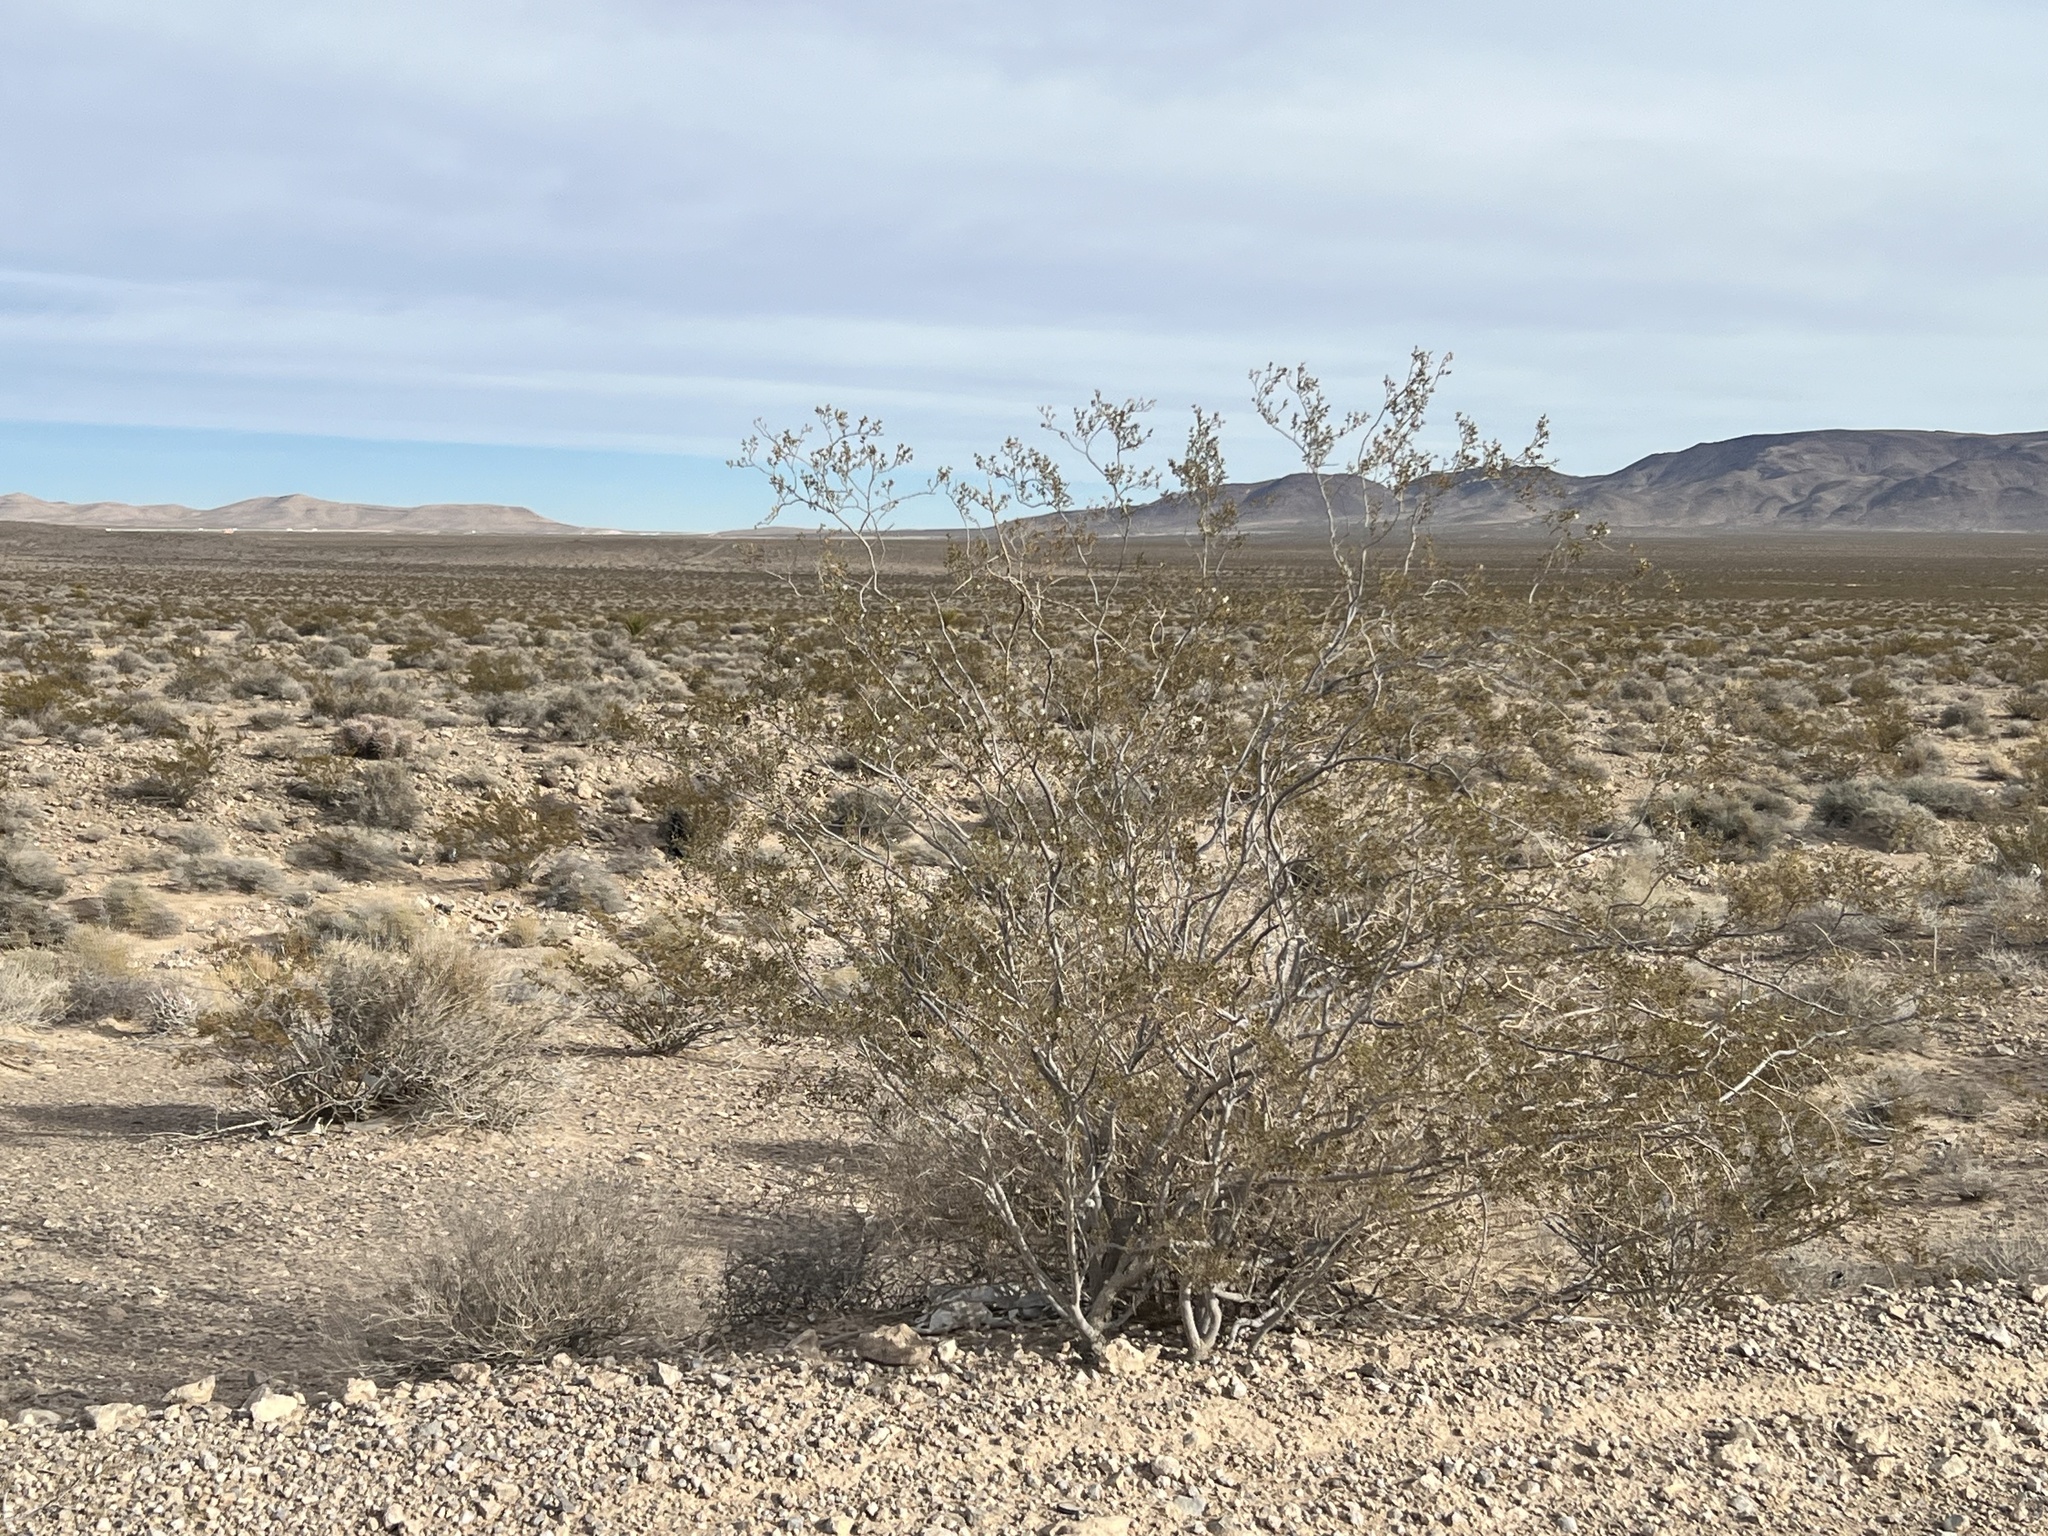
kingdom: Plantae
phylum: Tracheophyta
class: Magnoliopsida
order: Zygophyllales
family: Zygophyllaceae
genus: Larrea
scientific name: Larrea tridentata
